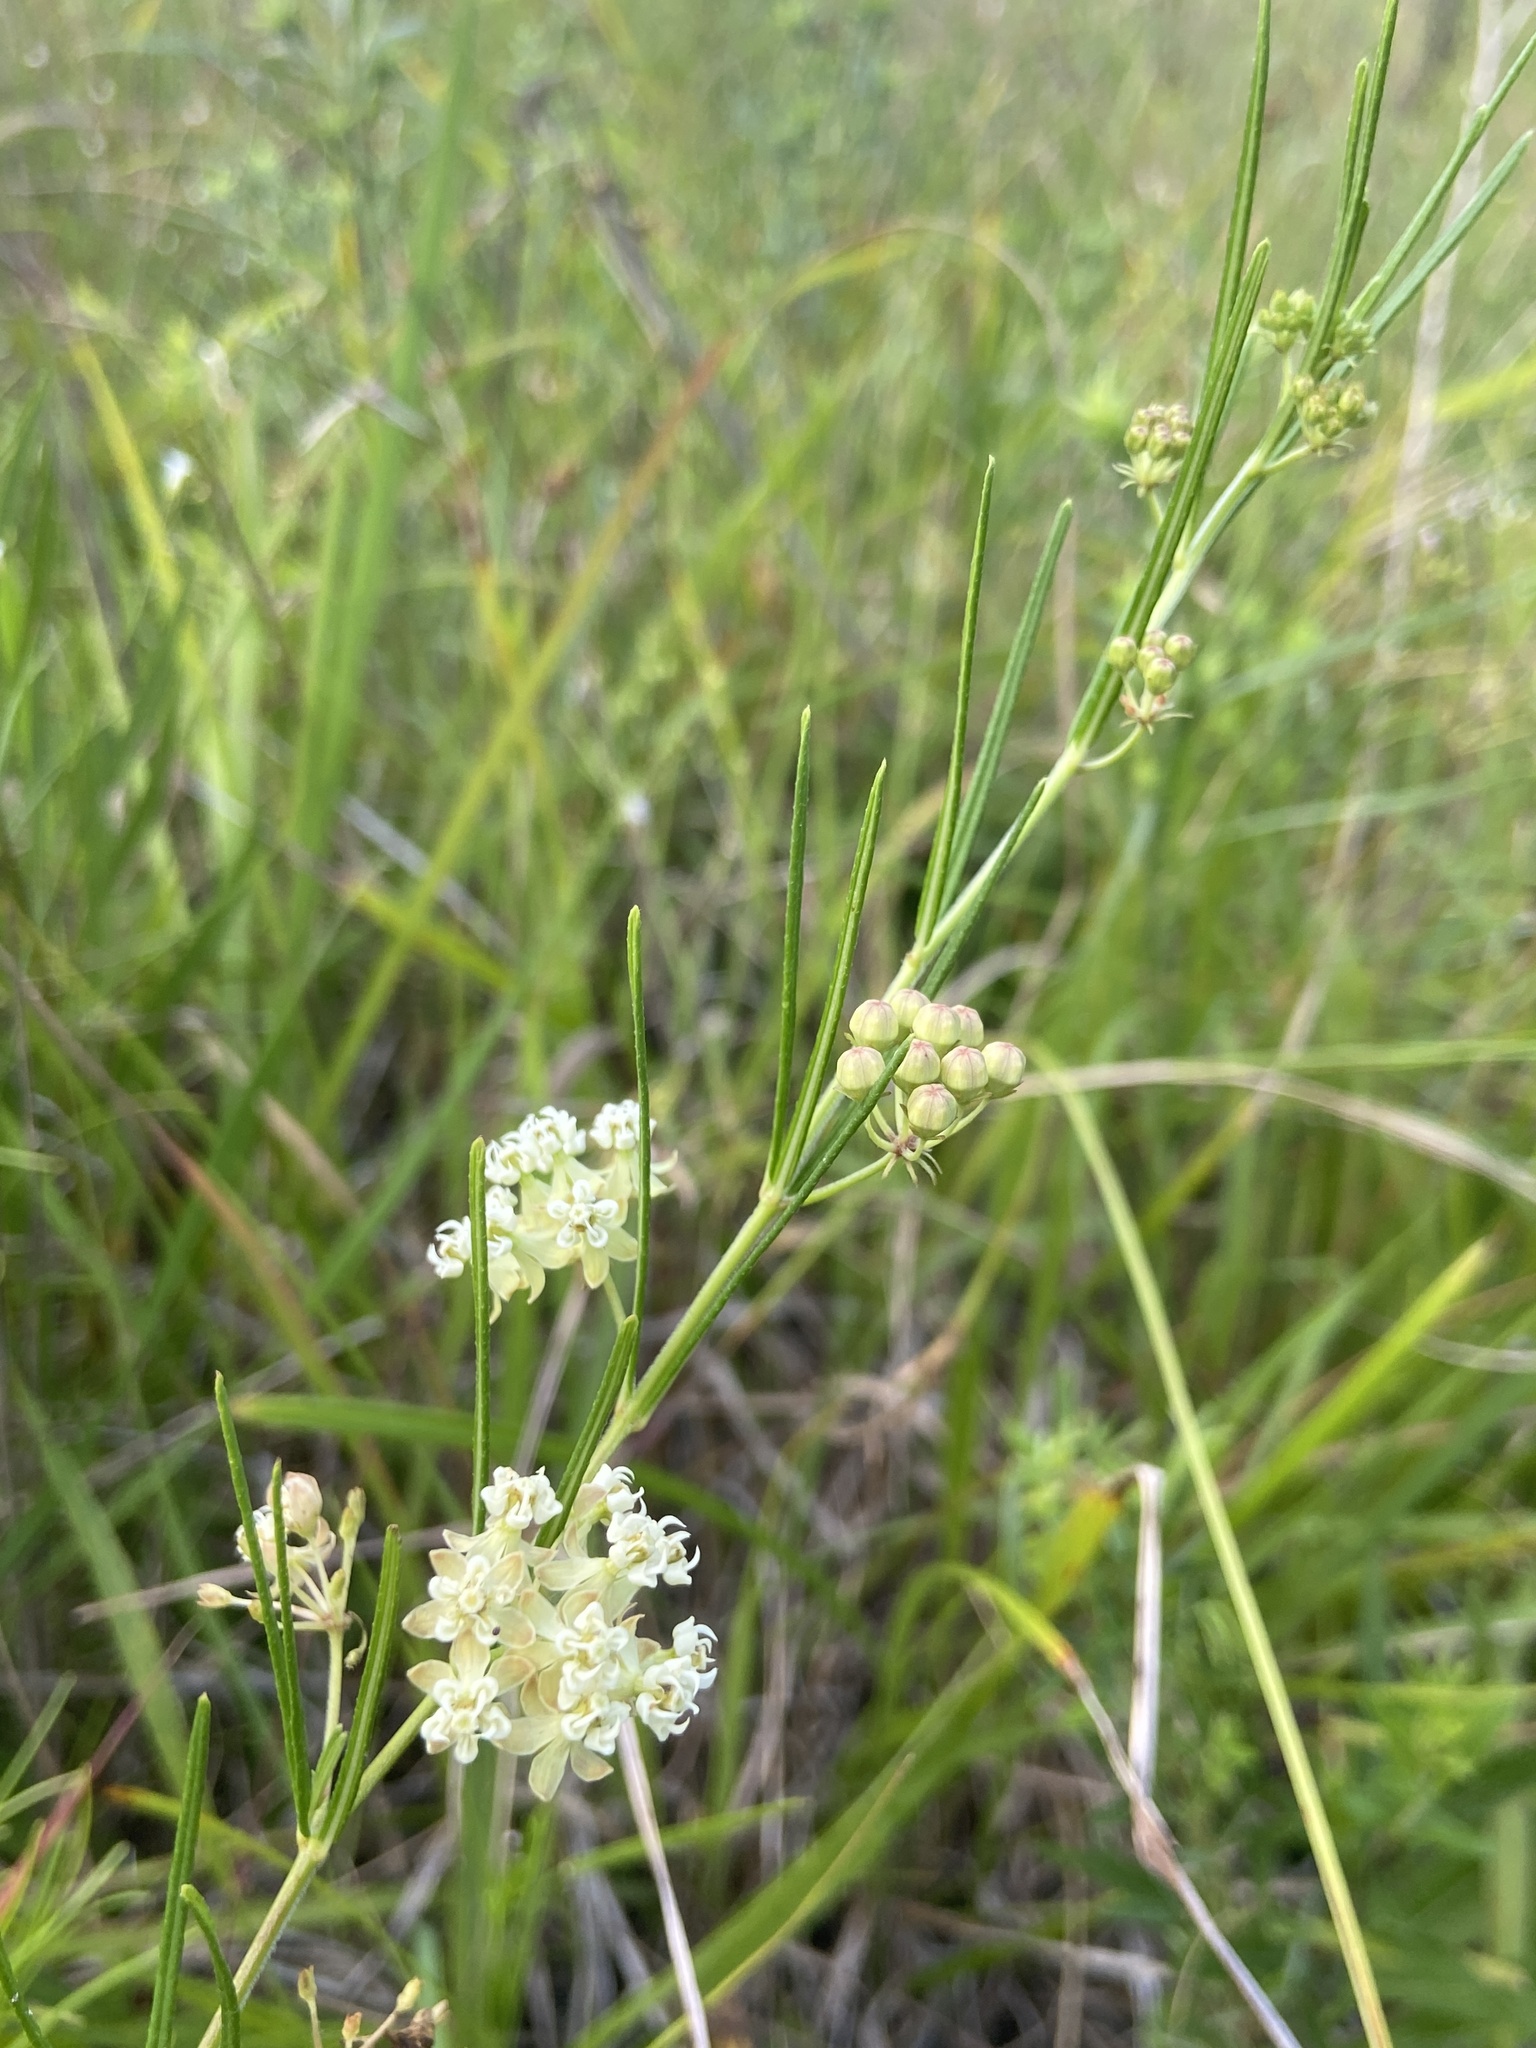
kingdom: Plantae
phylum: Tracheophyta
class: Magnoliopsida
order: Gentianales
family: Apocynaceae
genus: Asclepias
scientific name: Asclepias verticillata
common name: Eastern whorled milkweed
